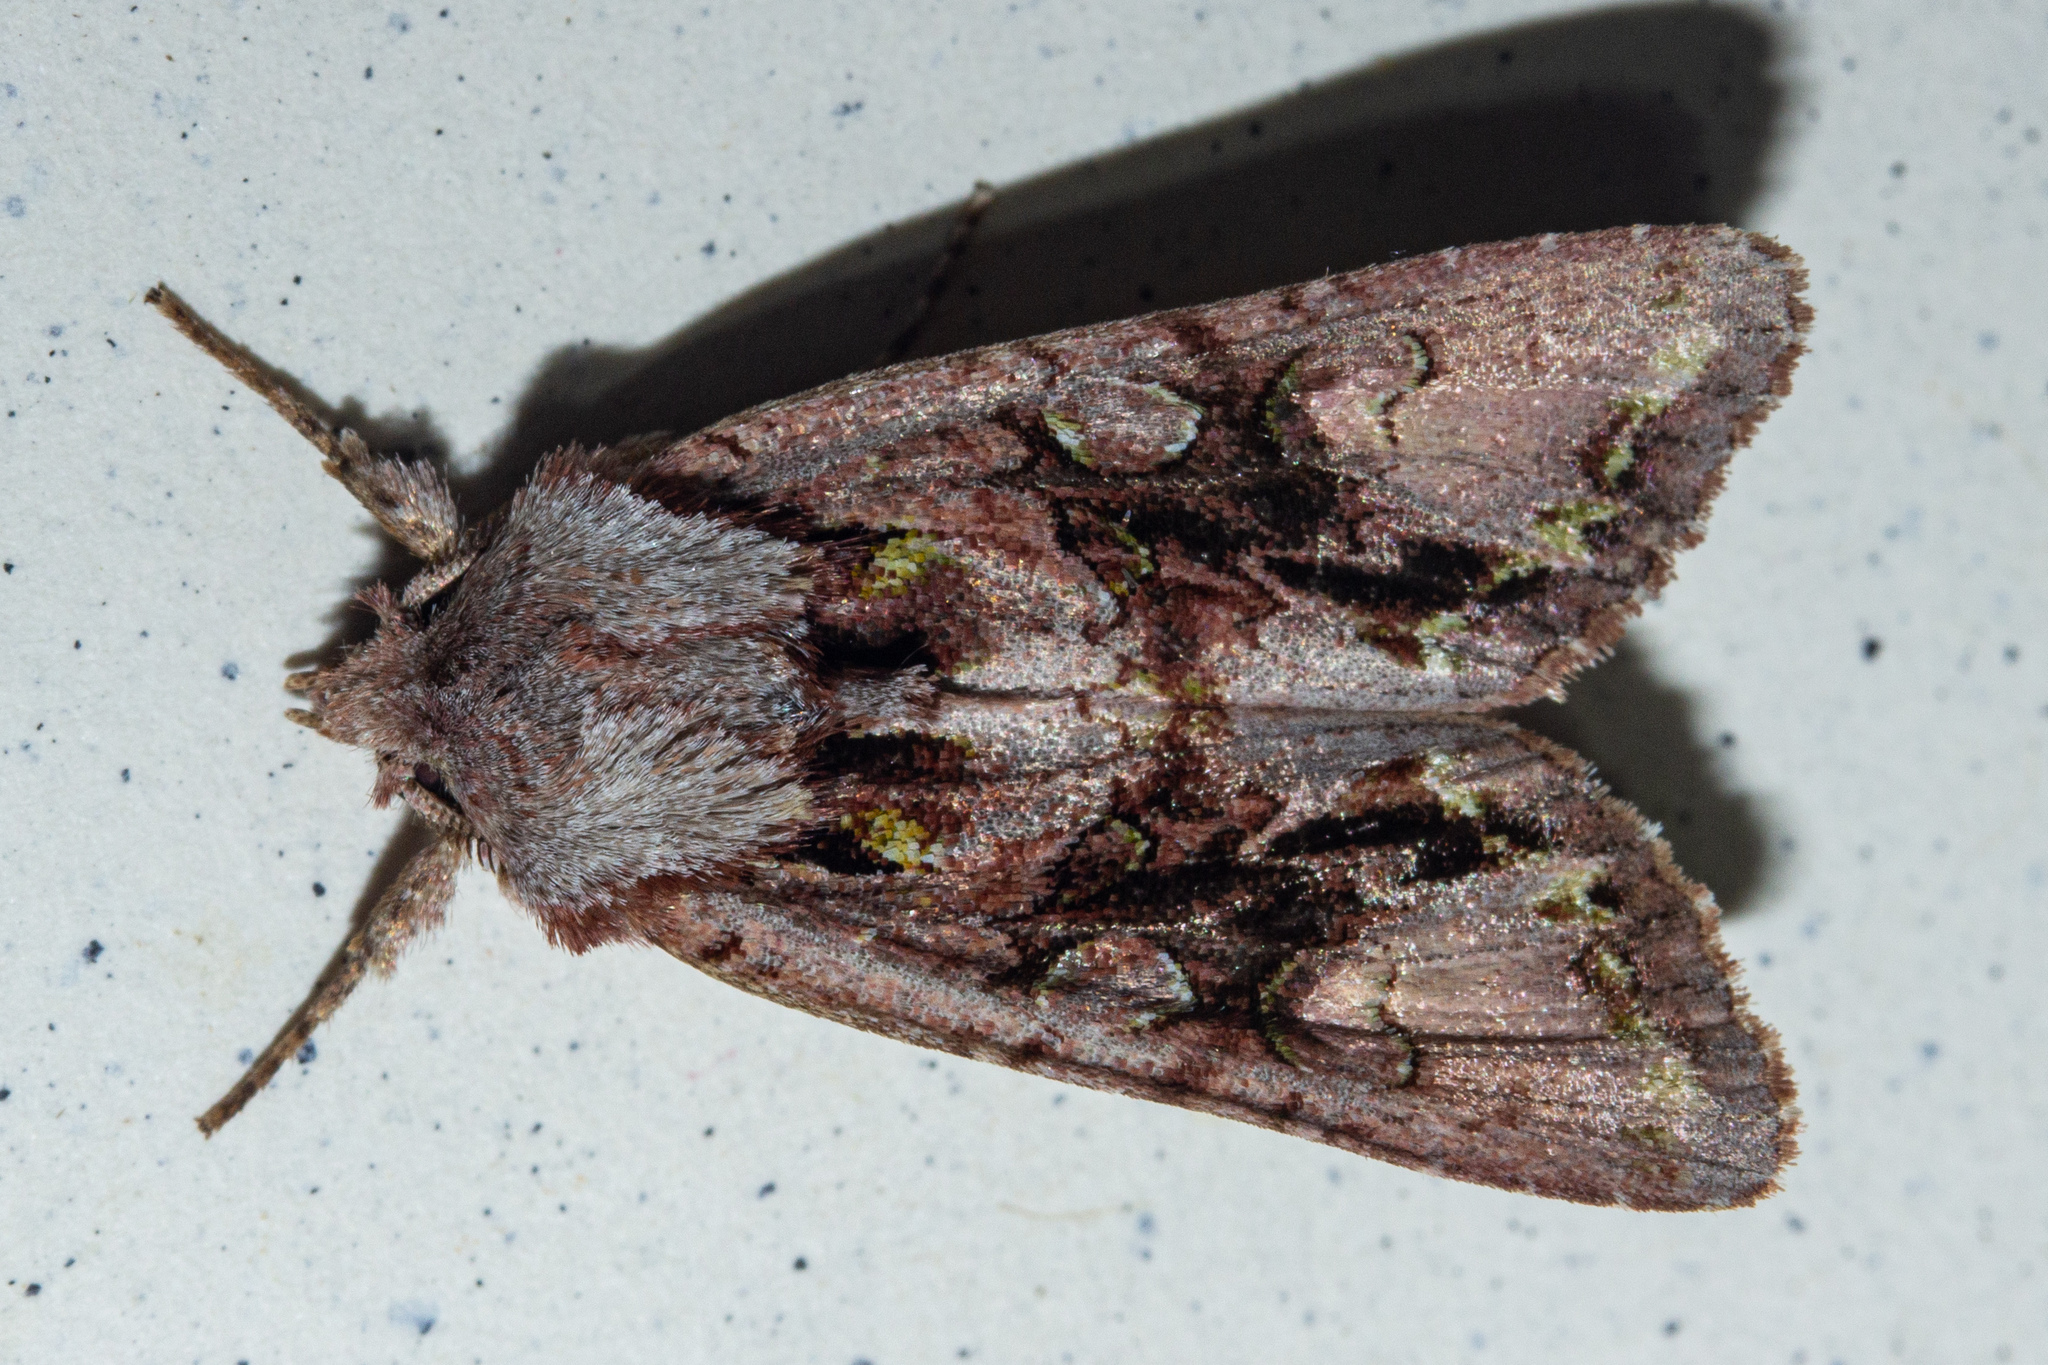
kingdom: Animalia
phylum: Arthropoda
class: Insecta
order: Lepidoptera
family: Noctuidae
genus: Ichneutica
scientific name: Ichneutica skelloni
